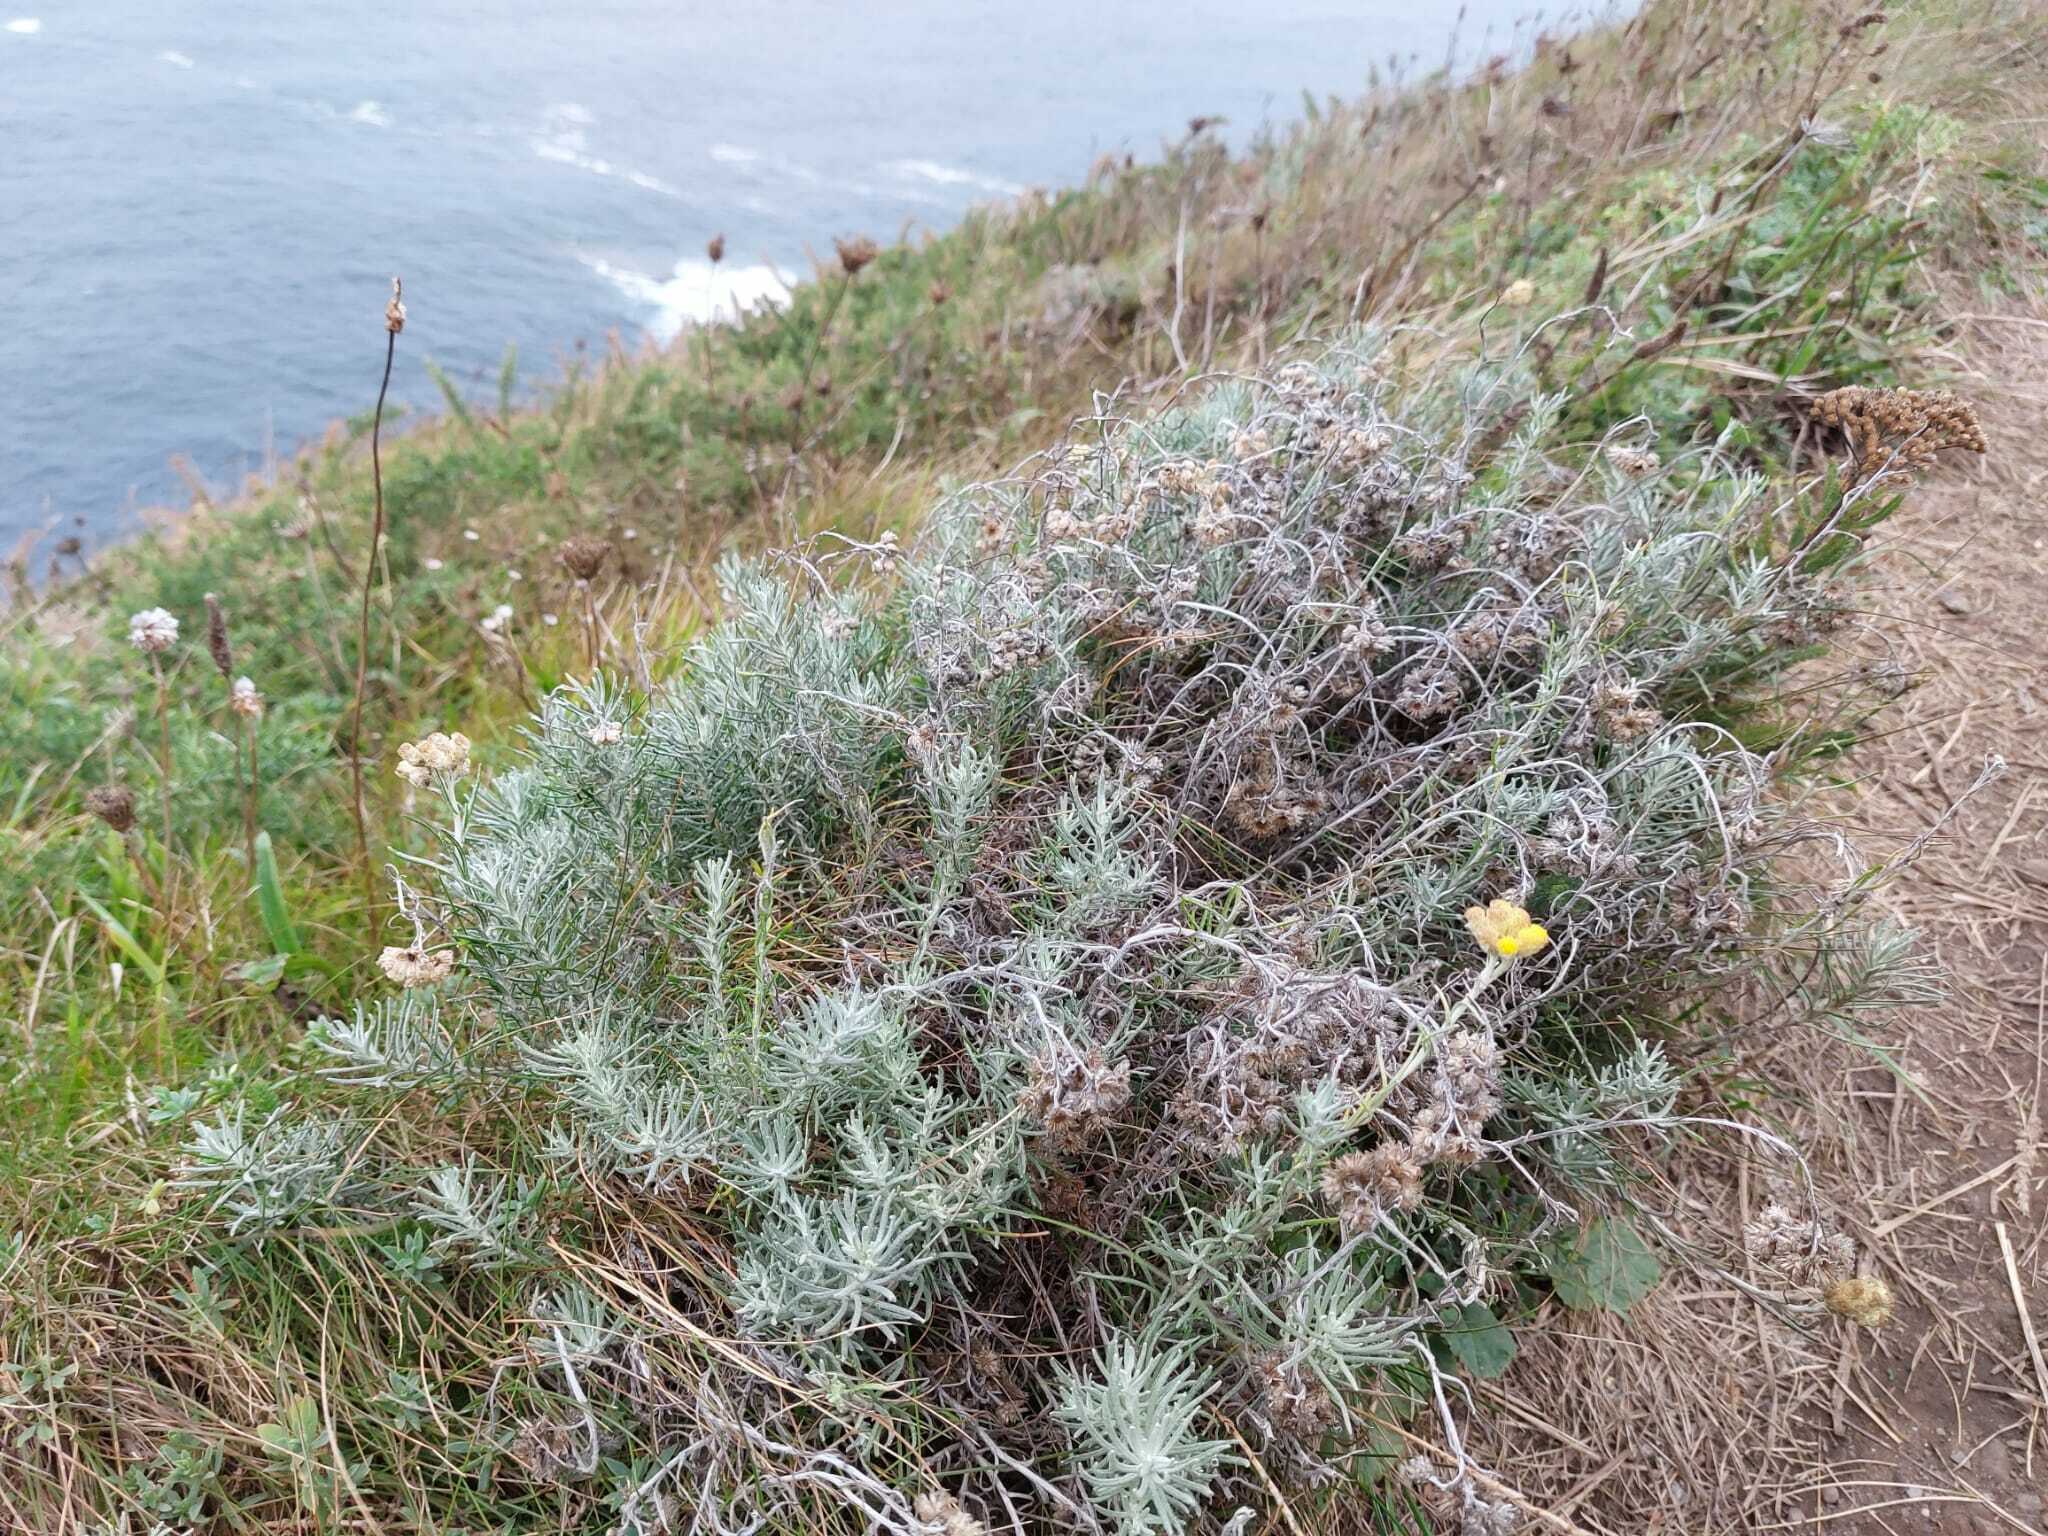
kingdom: Plantae
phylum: Tracheophyta
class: Magnoliopsida
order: Asterales
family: Asteraceae
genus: Helichrysum
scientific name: Helichrysum stoechas
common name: Goldilocks
